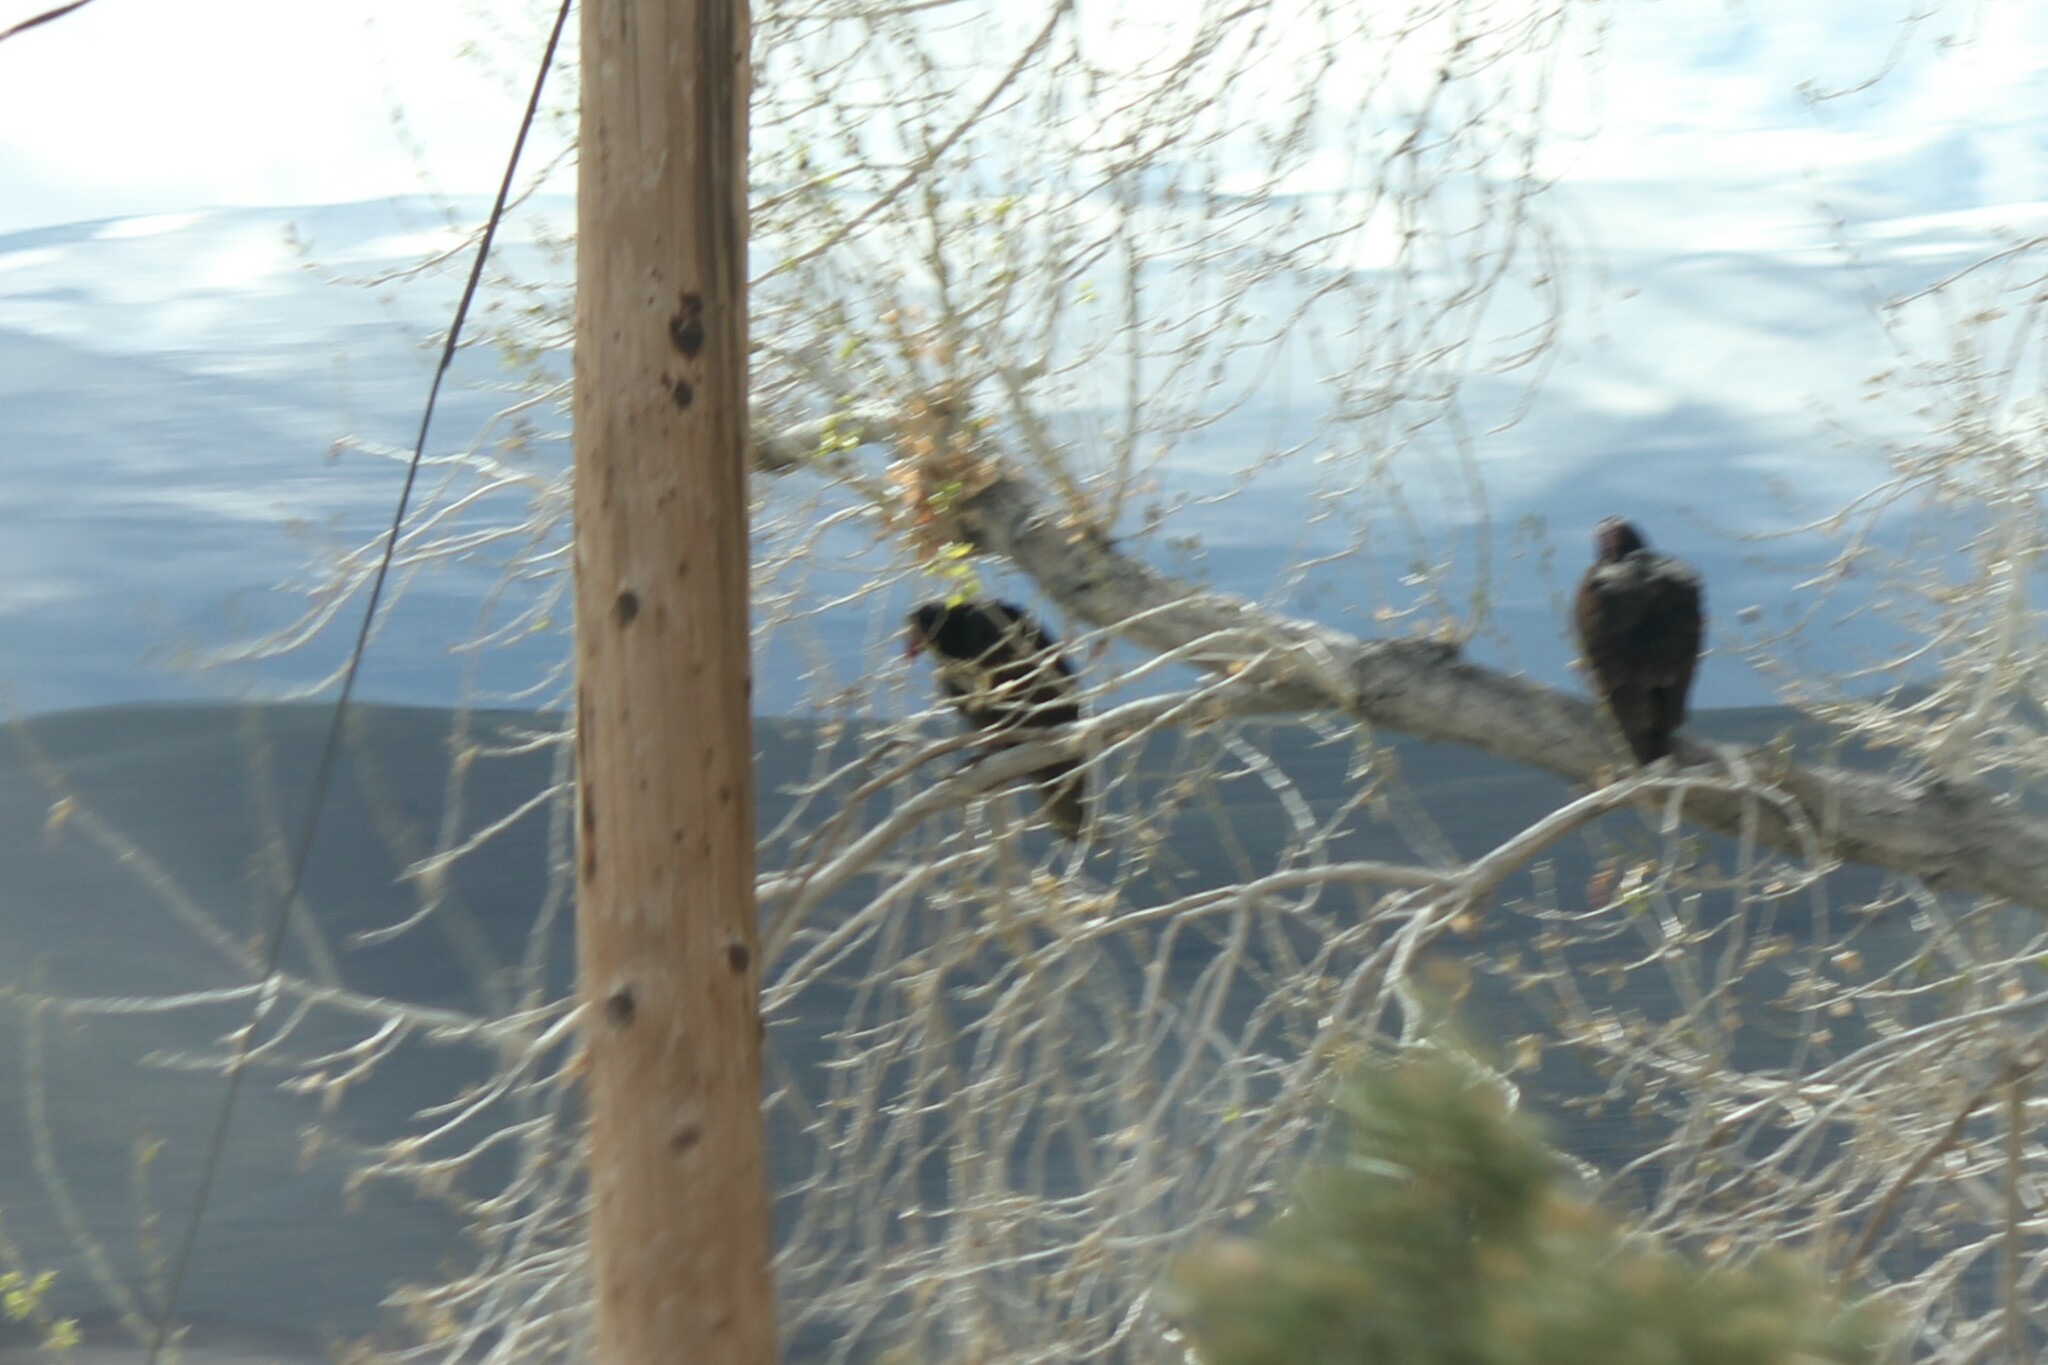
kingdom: Animalia
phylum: Chordata
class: Aves
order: Accipitriformes
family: Cathartidae
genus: Cathartes
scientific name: Cathartes aura
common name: Turkey vulture
